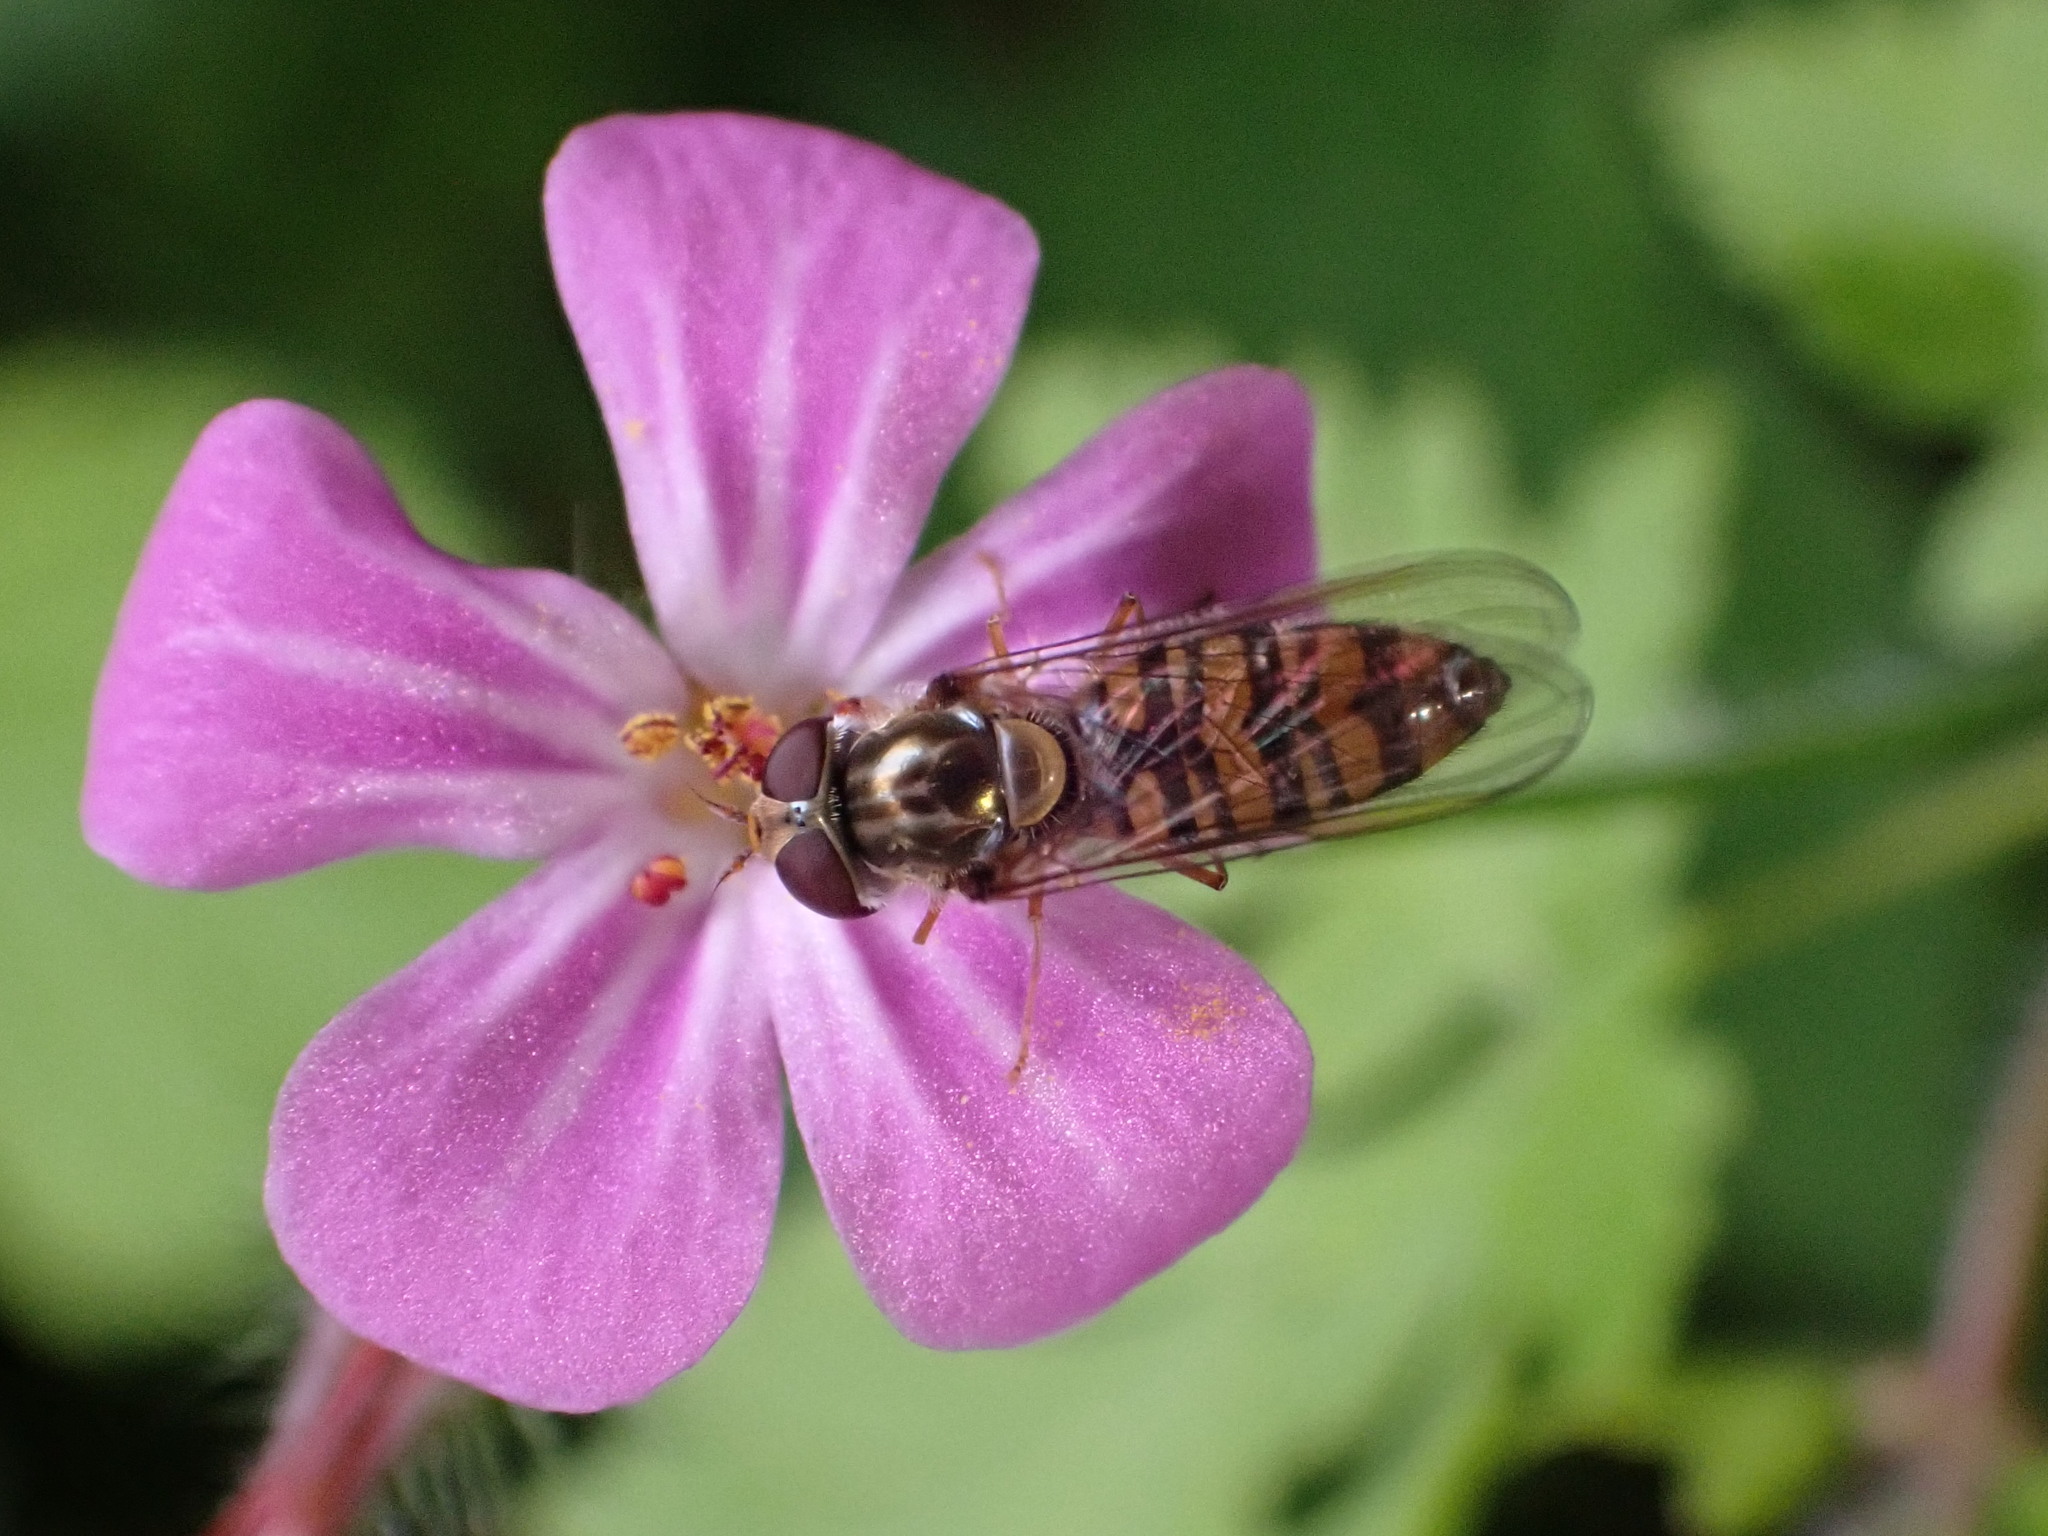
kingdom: Animalia
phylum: Arthropoda
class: Insecta
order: Diptera
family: Syrphidae
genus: Episyrphus
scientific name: Episyrphus balteatus
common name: Marmalade hoverfly
